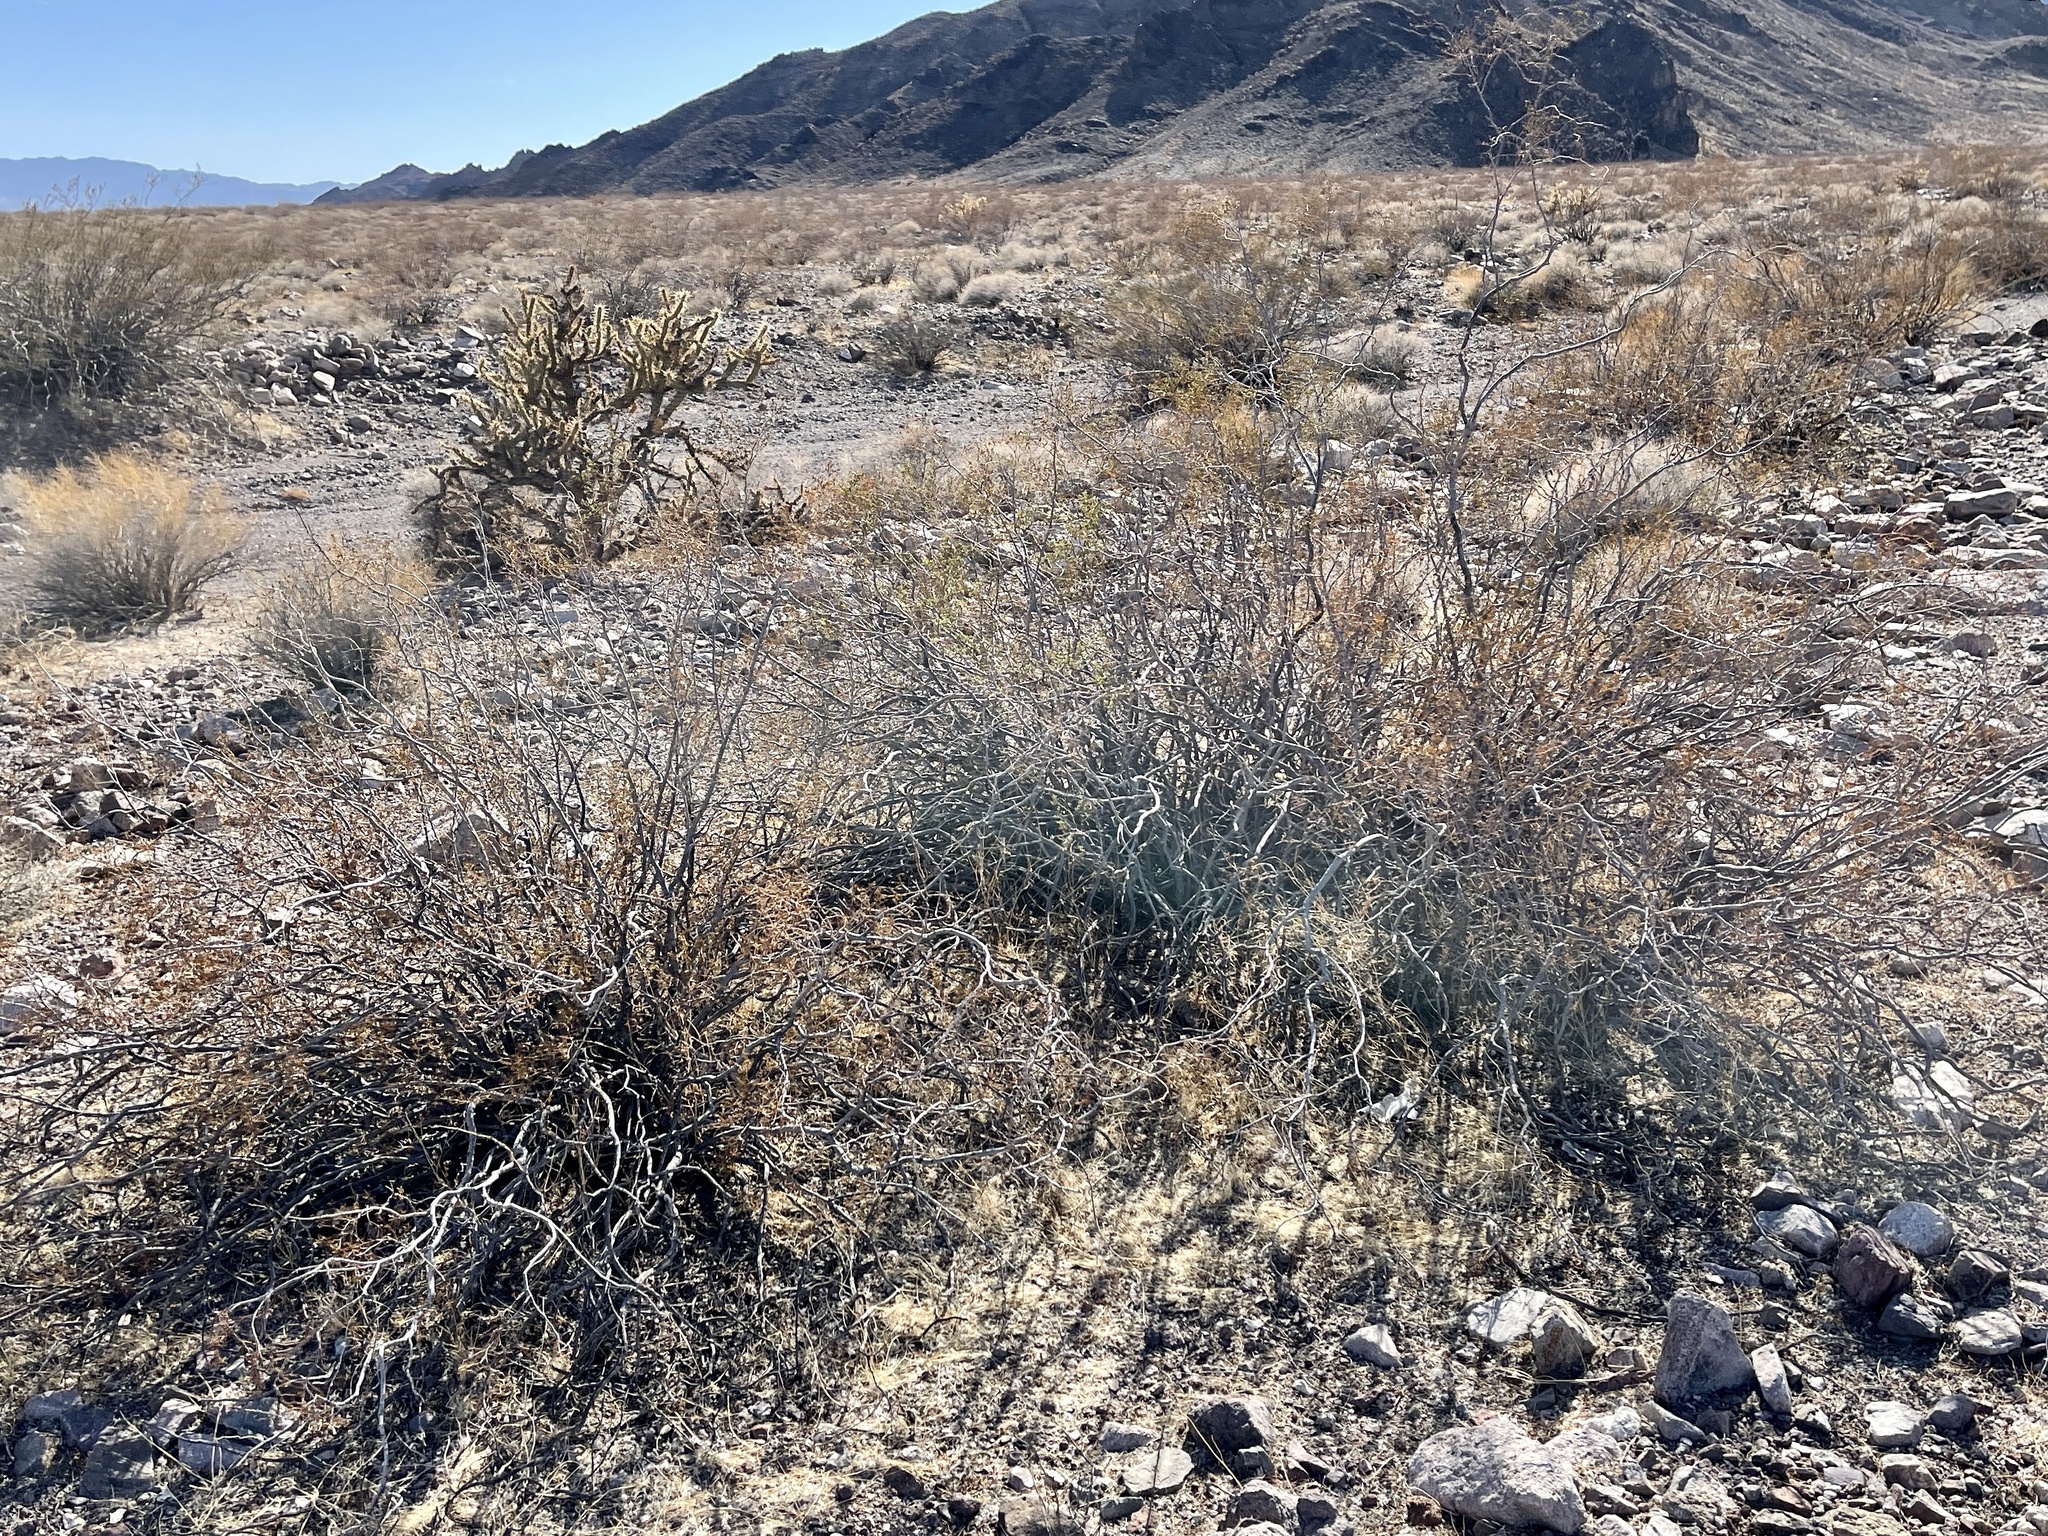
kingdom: Plantae
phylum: Tracheophyta
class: Magnoliopsida
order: Zygophyllales
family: Zygophyllaceae
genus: Larrea
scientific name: Larrea tridentata
